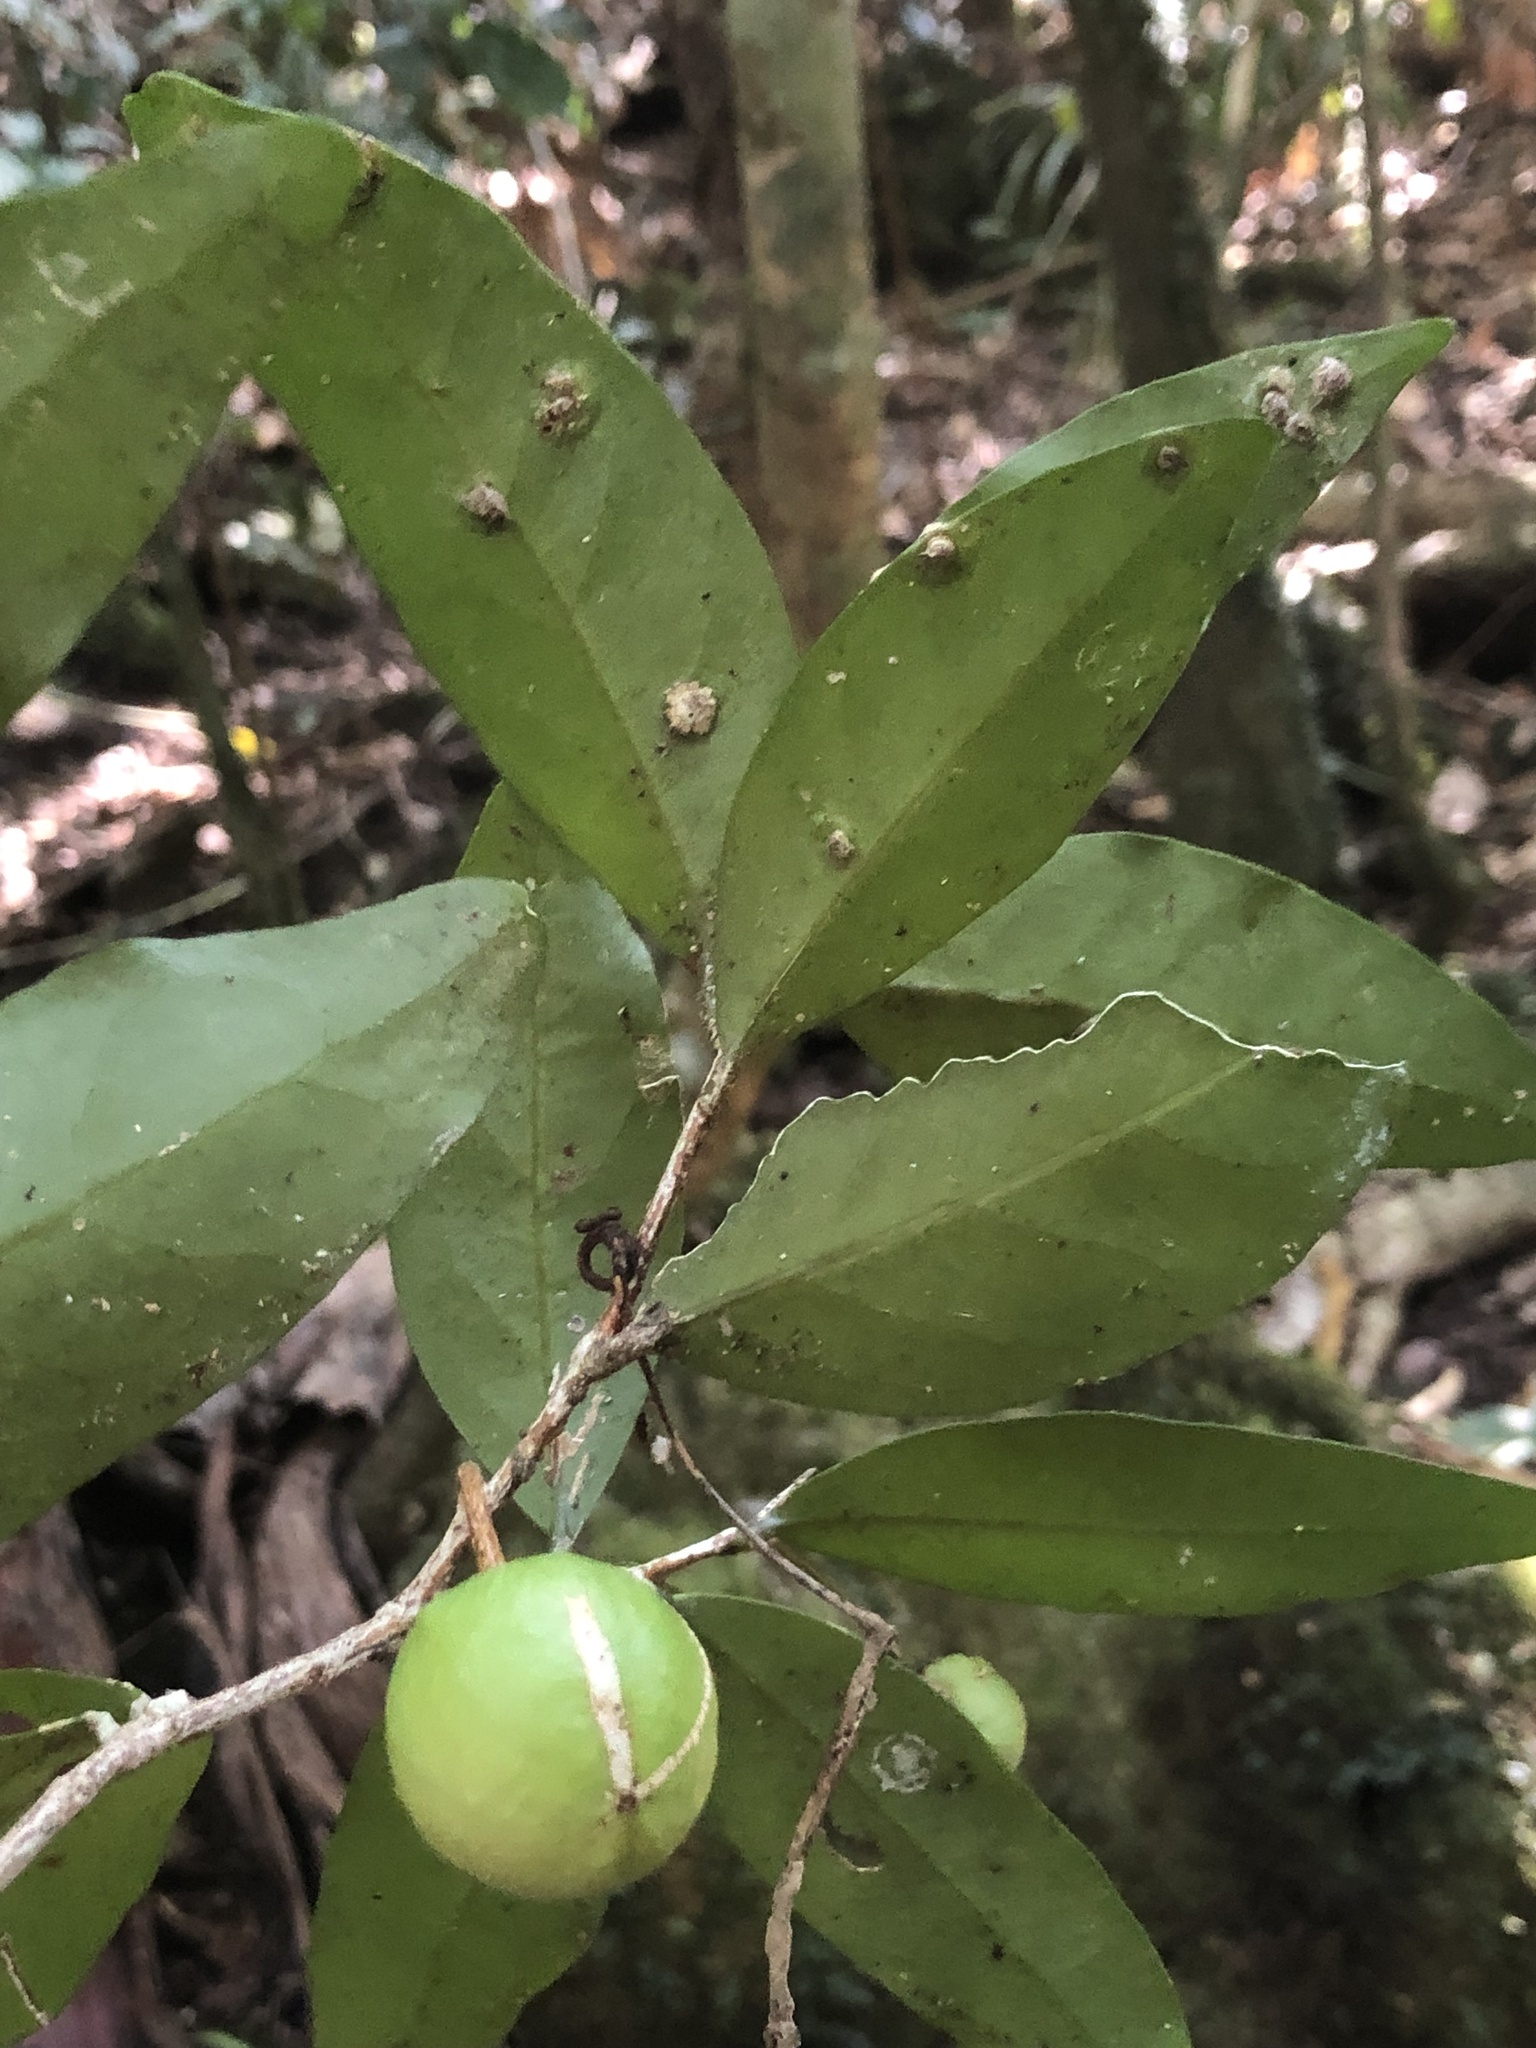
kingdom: Plantae
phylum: Tracheophyta
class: Magnoliopsida
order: Celastrales
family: Celastraceae
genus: Hedraianthera
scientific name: Hedraianthera porphyropetala
